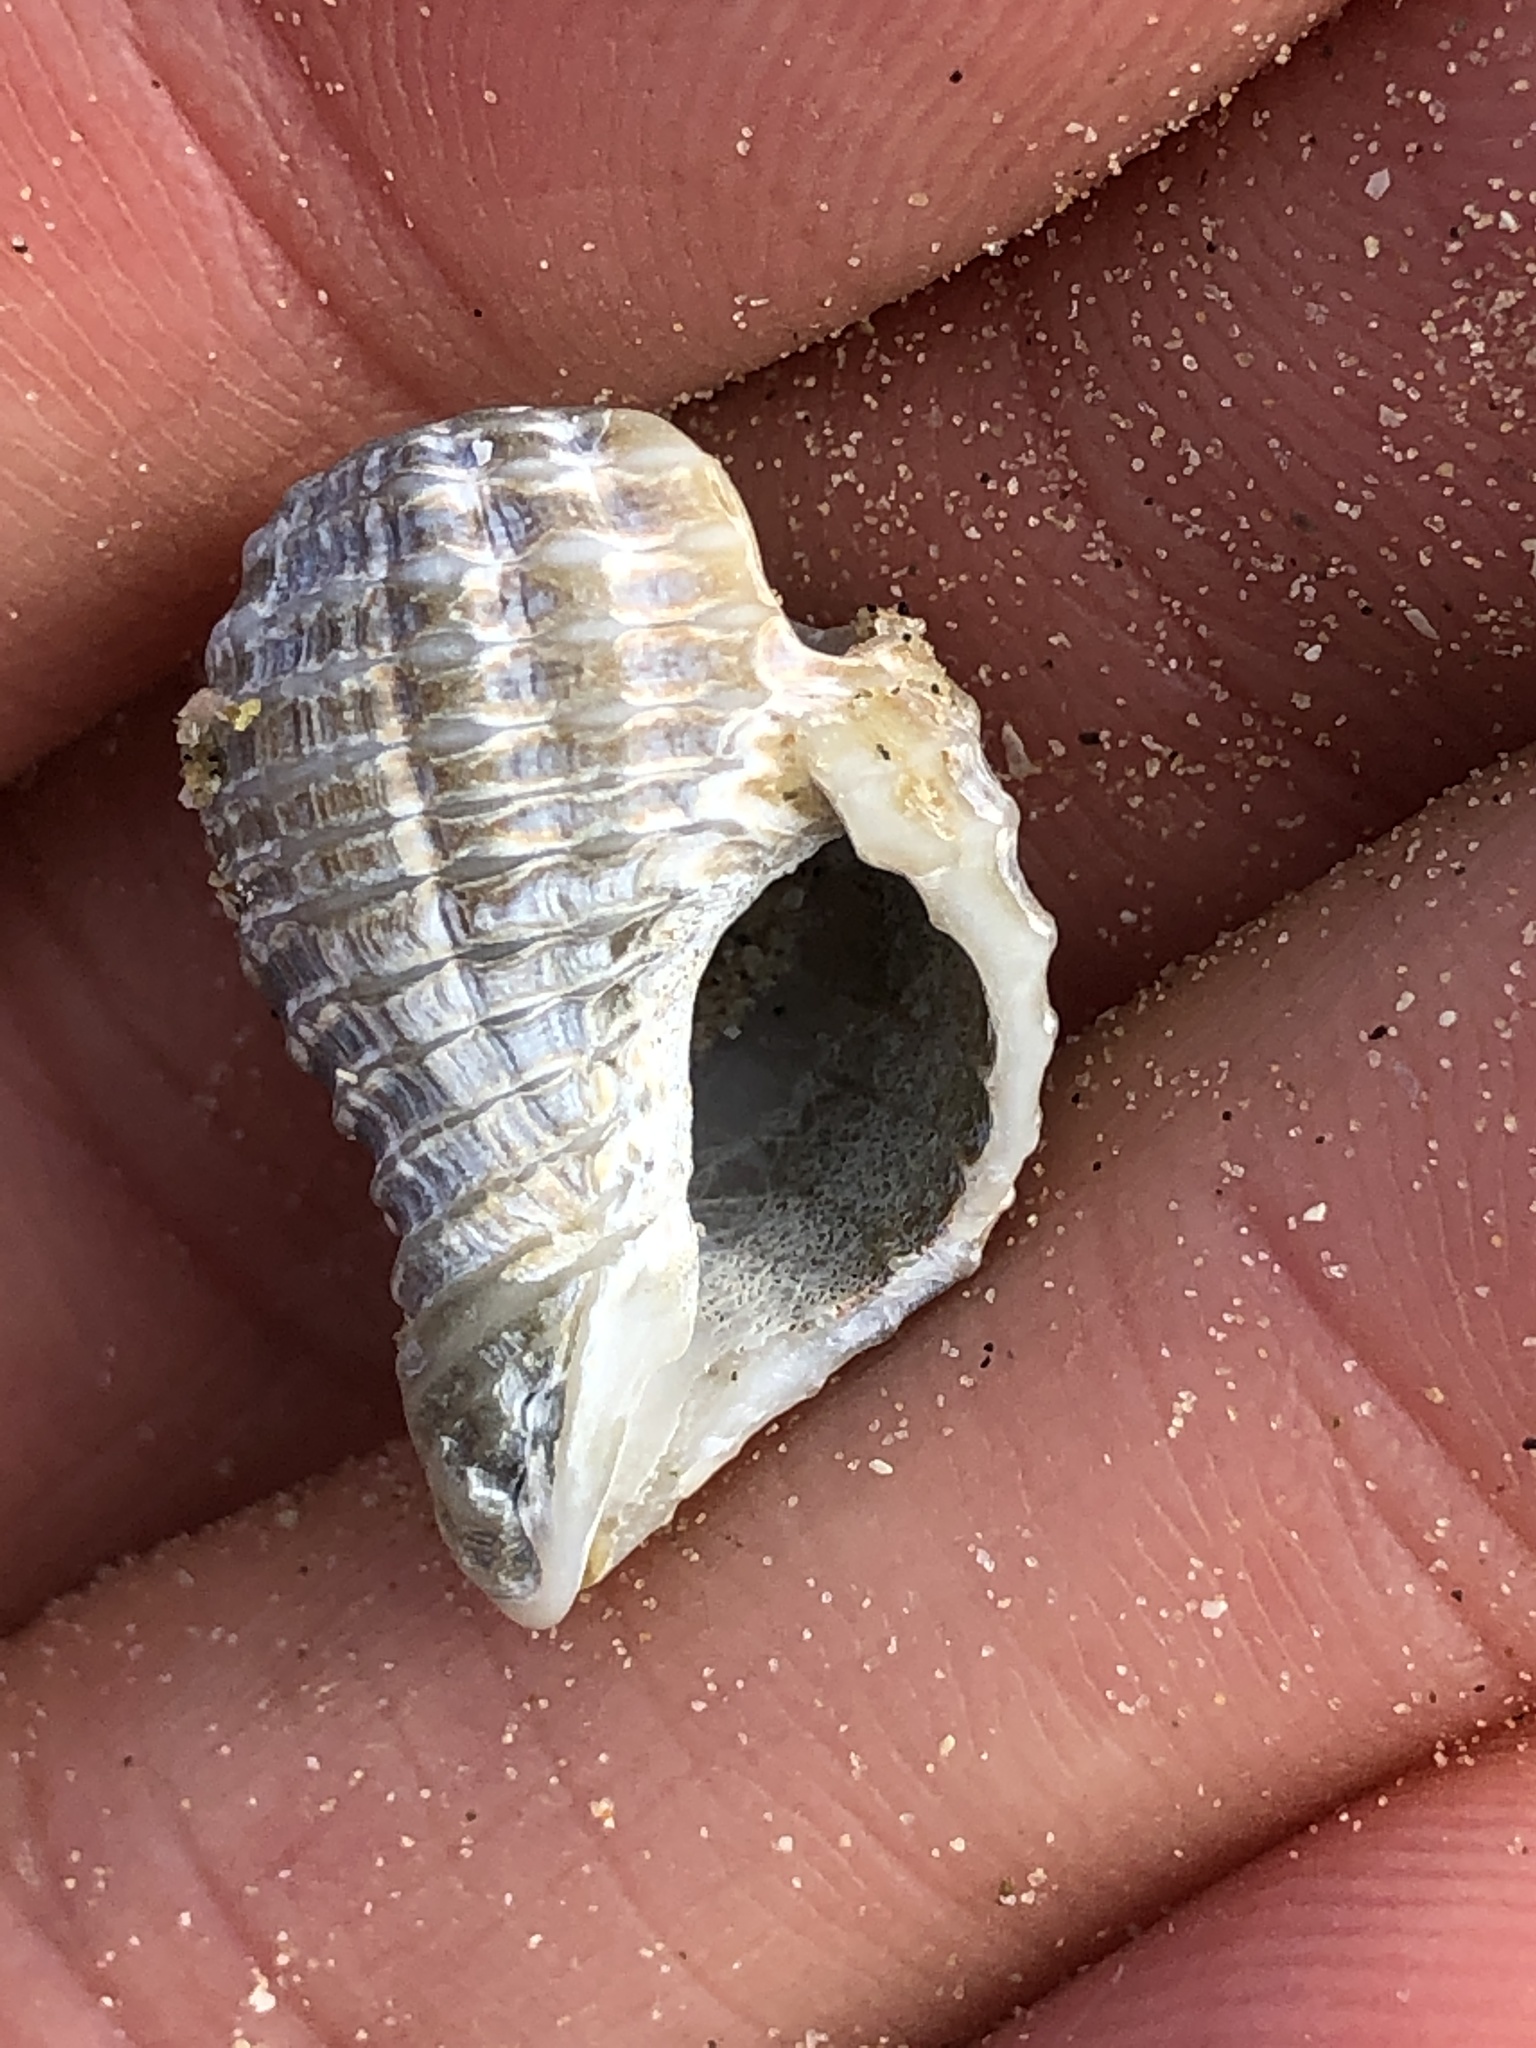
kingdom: Animalia
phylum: Mollusca
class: Gastropoda
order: Neogastropoda
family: Pisaniidae
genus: Solenosteira
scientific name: Solenosteira cancellaria
